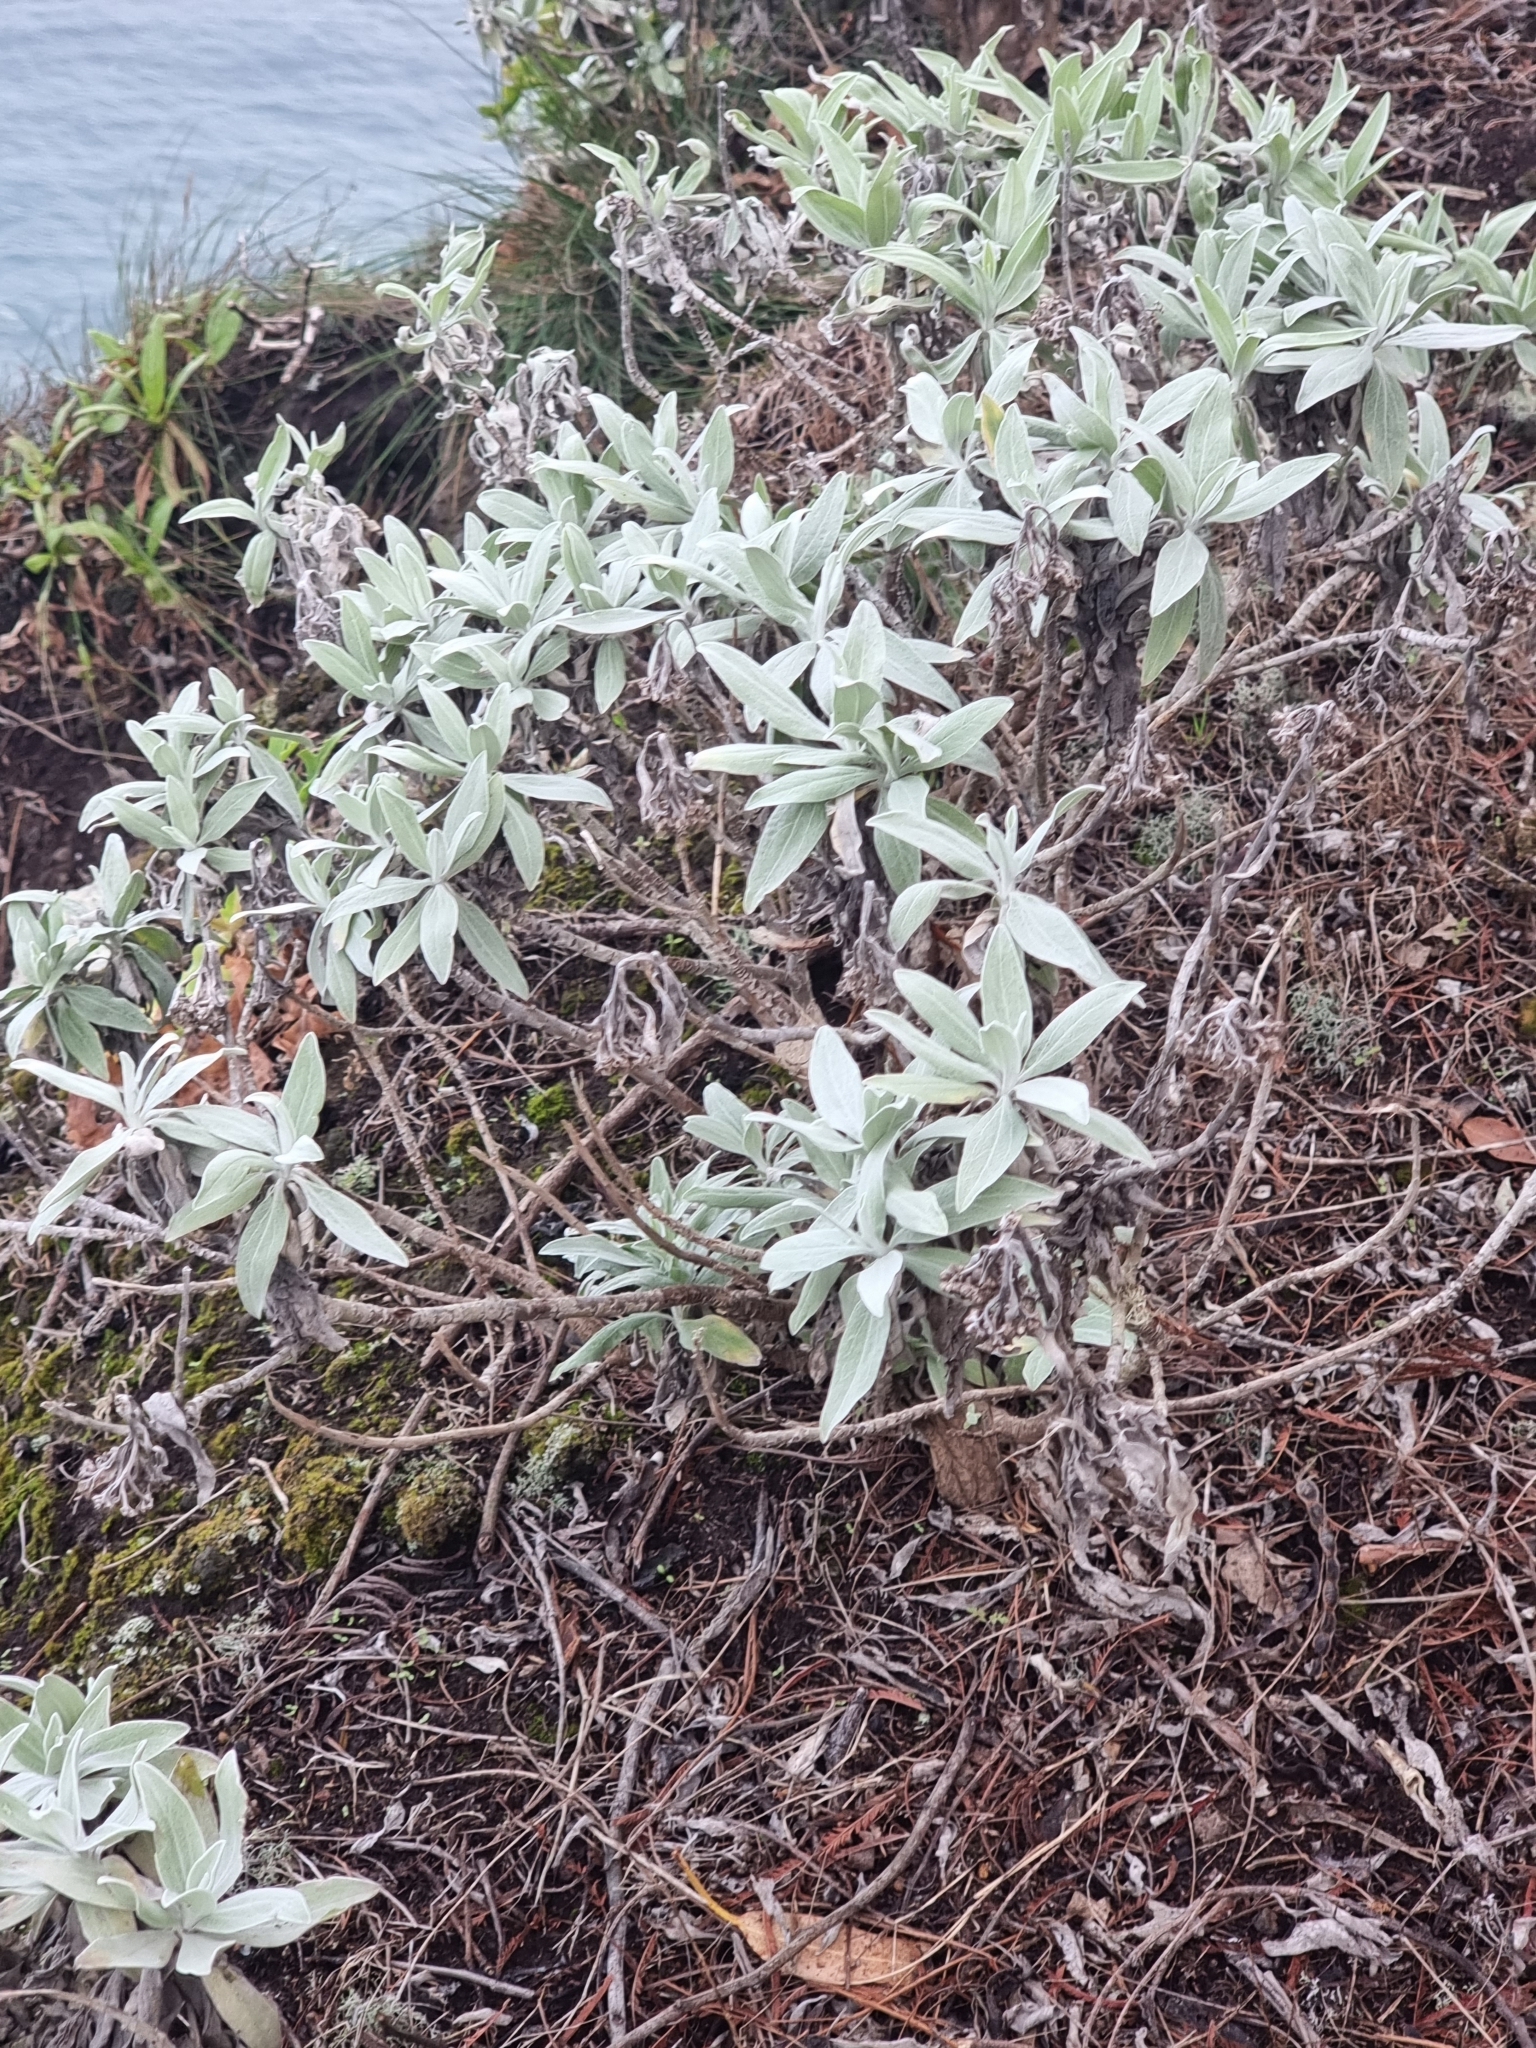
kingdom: Plantae
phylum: Tracheophyta
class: Magnoliopsida
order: Asterales
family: Asteraceae
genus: Helichrysum
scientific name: Helichrysum melaleucum
